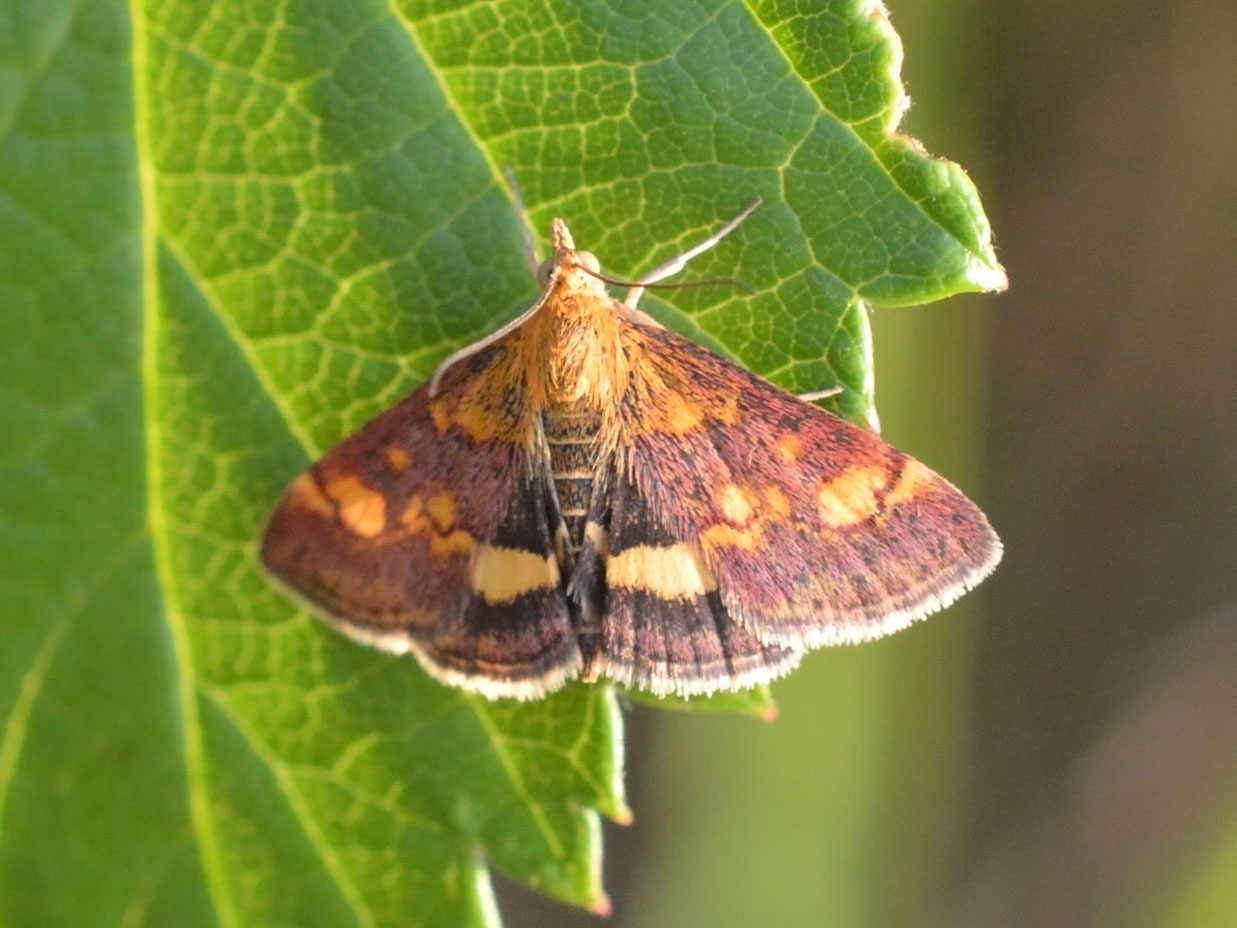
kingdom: Animalia
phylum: Arthropoda
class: Insecta
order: Lepidoptera
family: Crambidae
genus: Pyrausta
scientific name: Pyrausta aurata
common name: Small purple & gold
